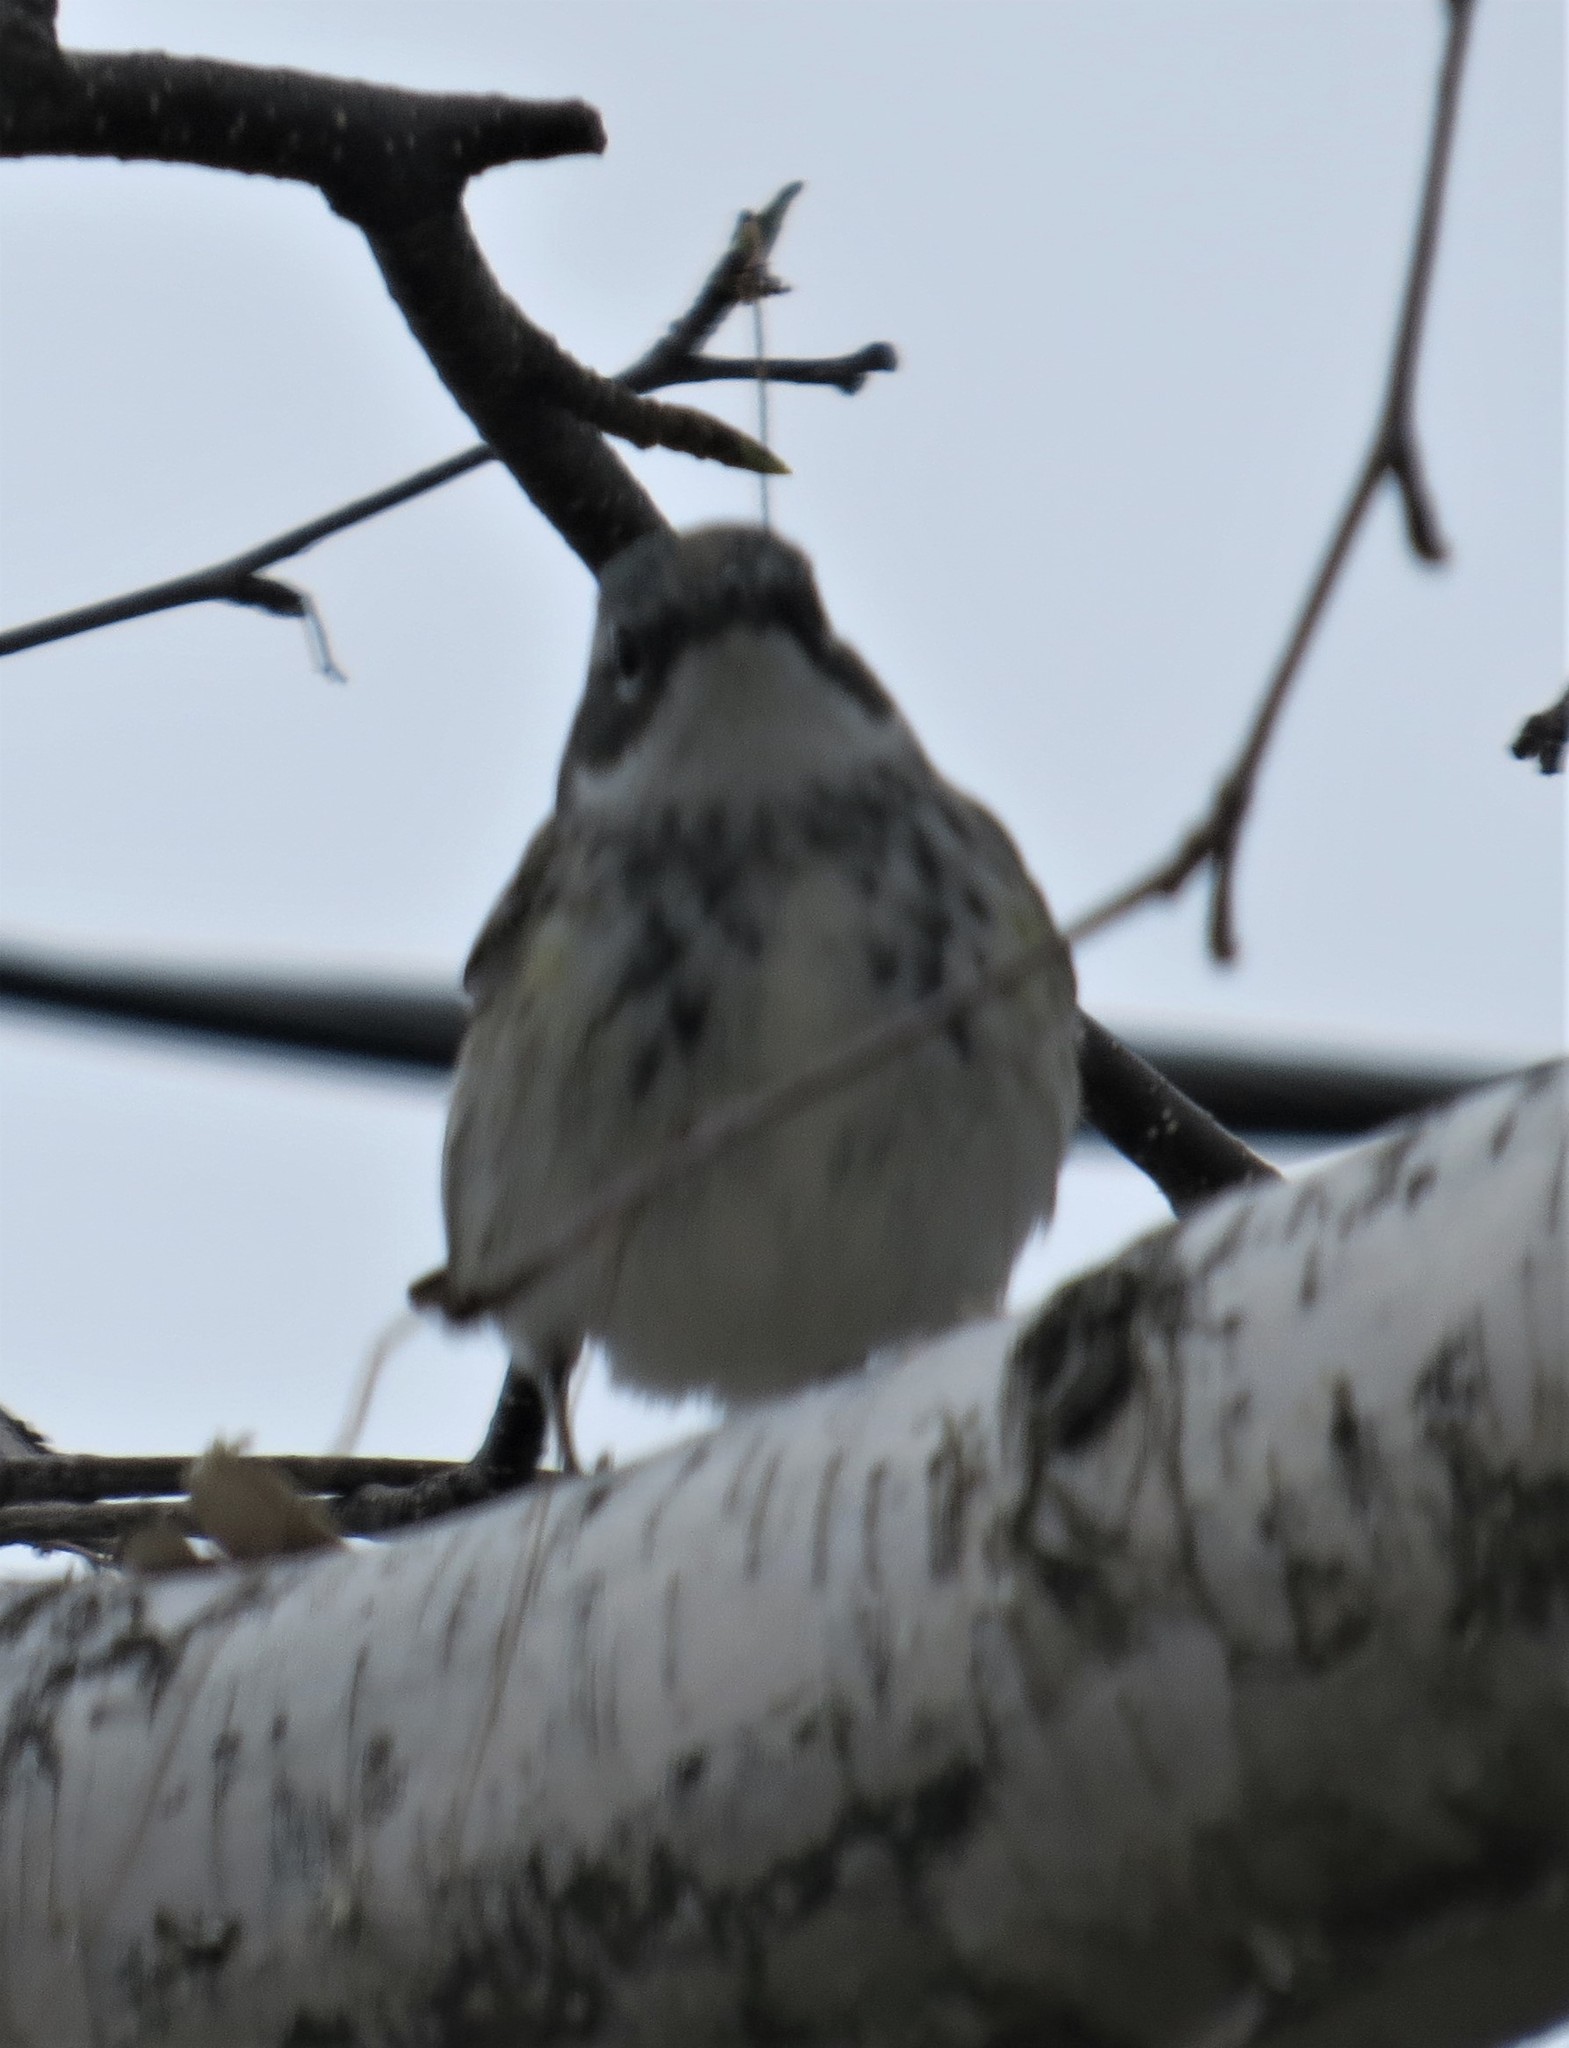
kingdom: Animalia
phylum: Chordata
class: Aves
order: Passeriformes
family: Parulidae
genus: Setophaga
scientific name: Setophaga coronata
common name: Myrtle warbler
